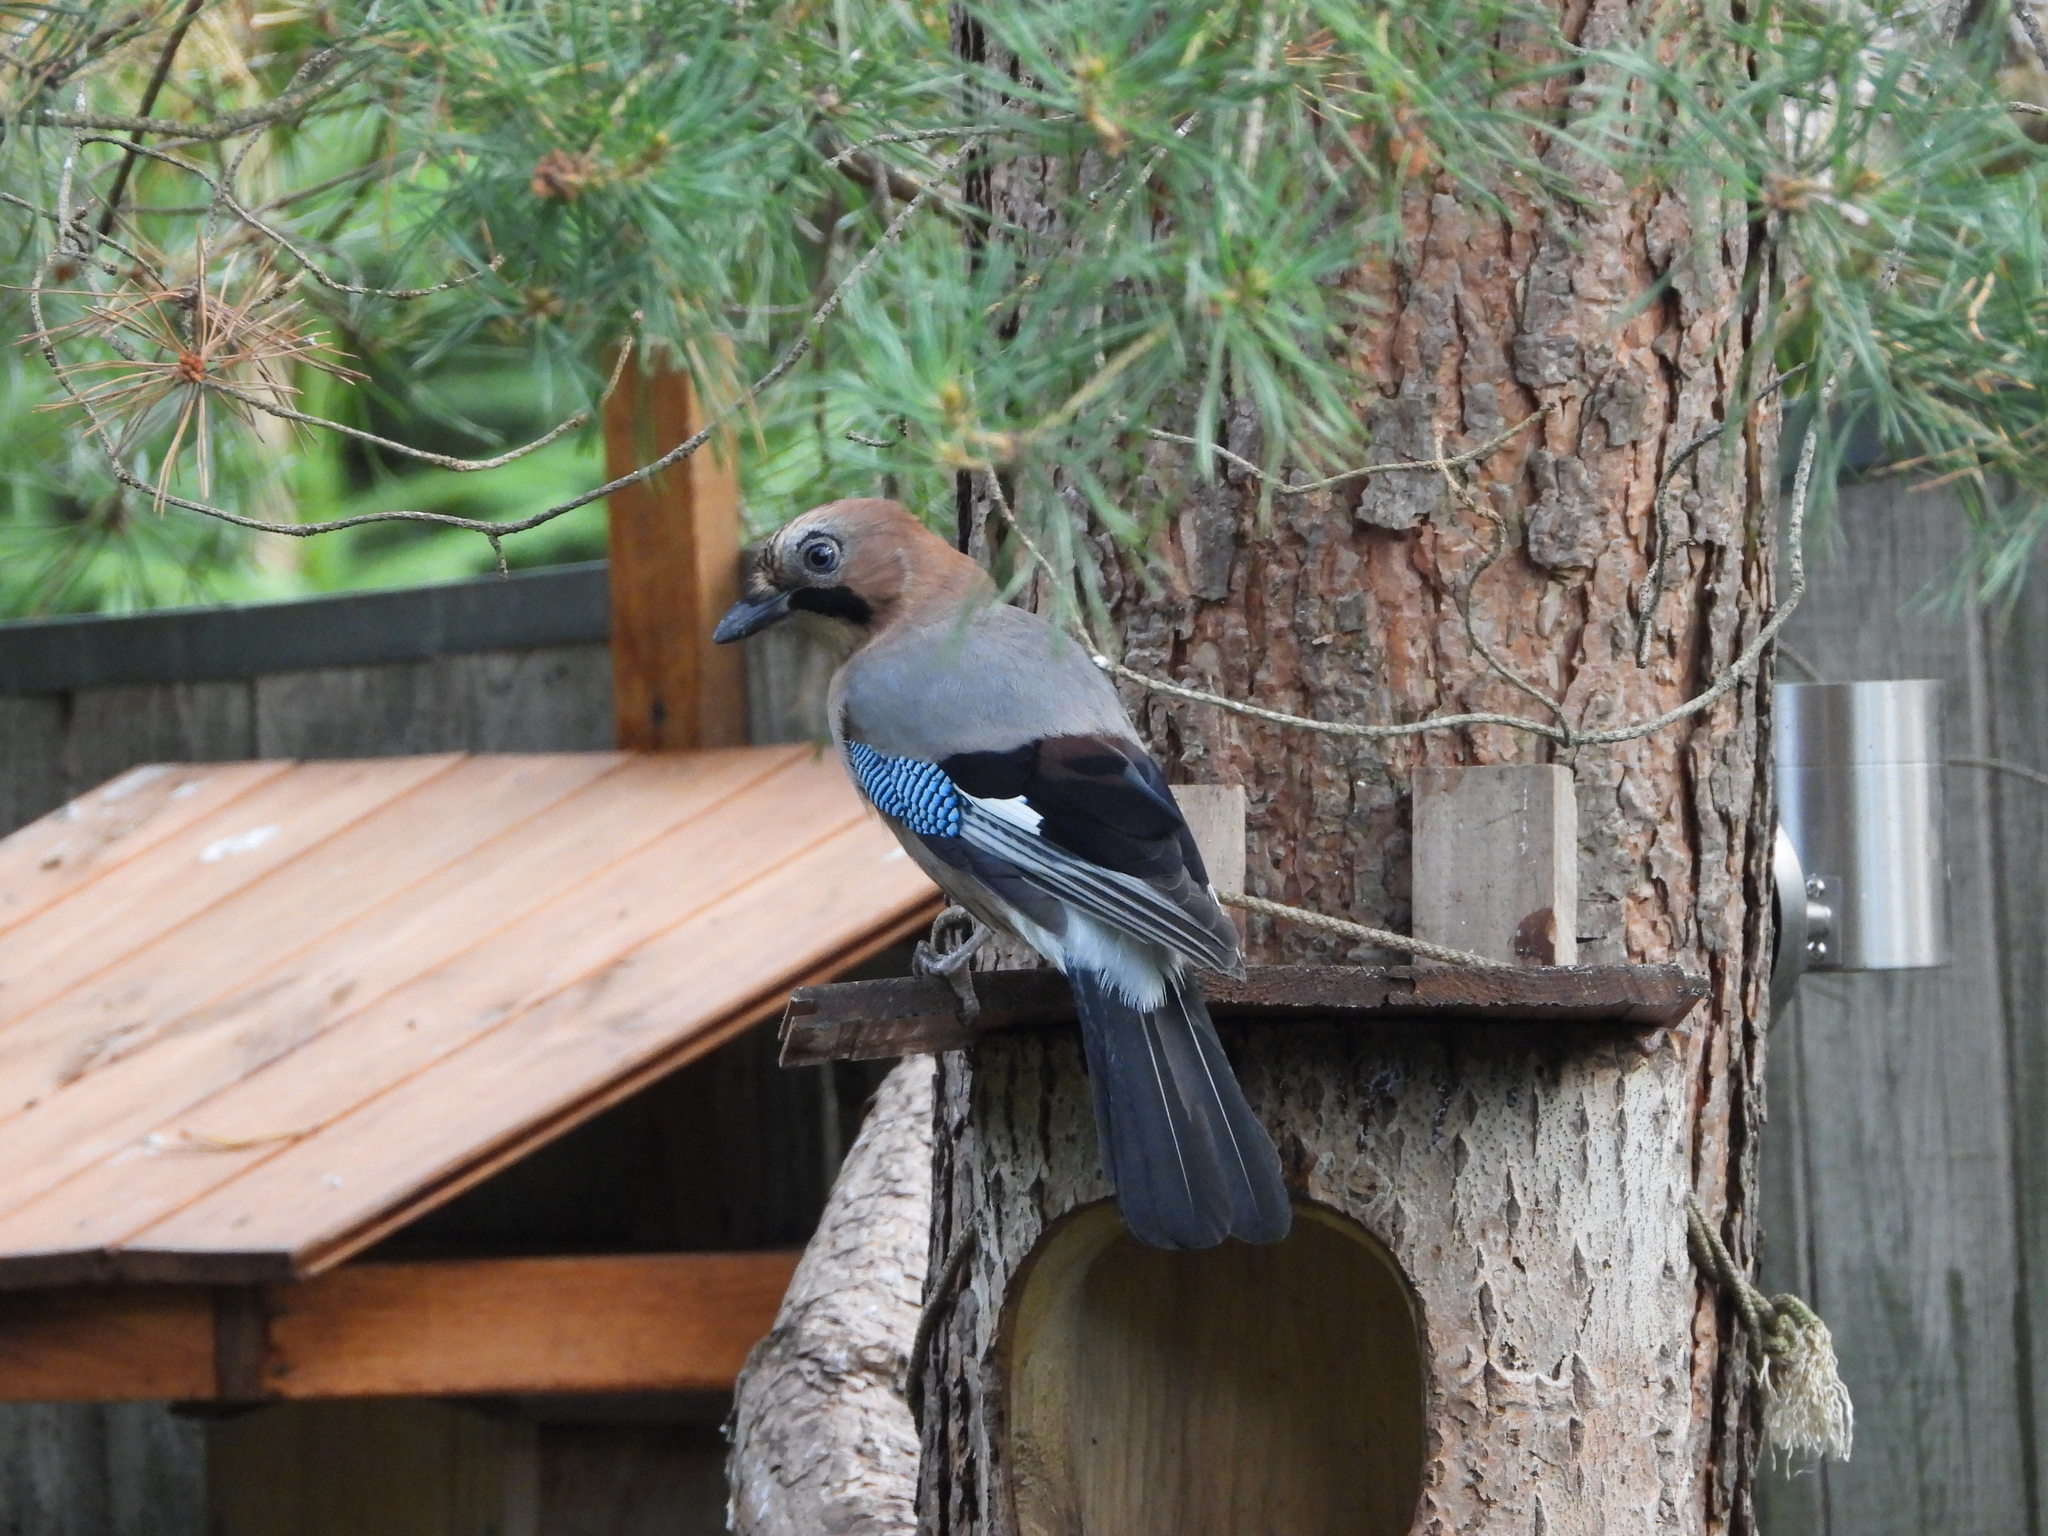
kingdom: Animalia
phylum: Chordata
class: Aves
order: Passeriformes
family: Corvidae
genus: Garrulus
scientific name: Garrulus glandarius
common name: Eurasian jay
